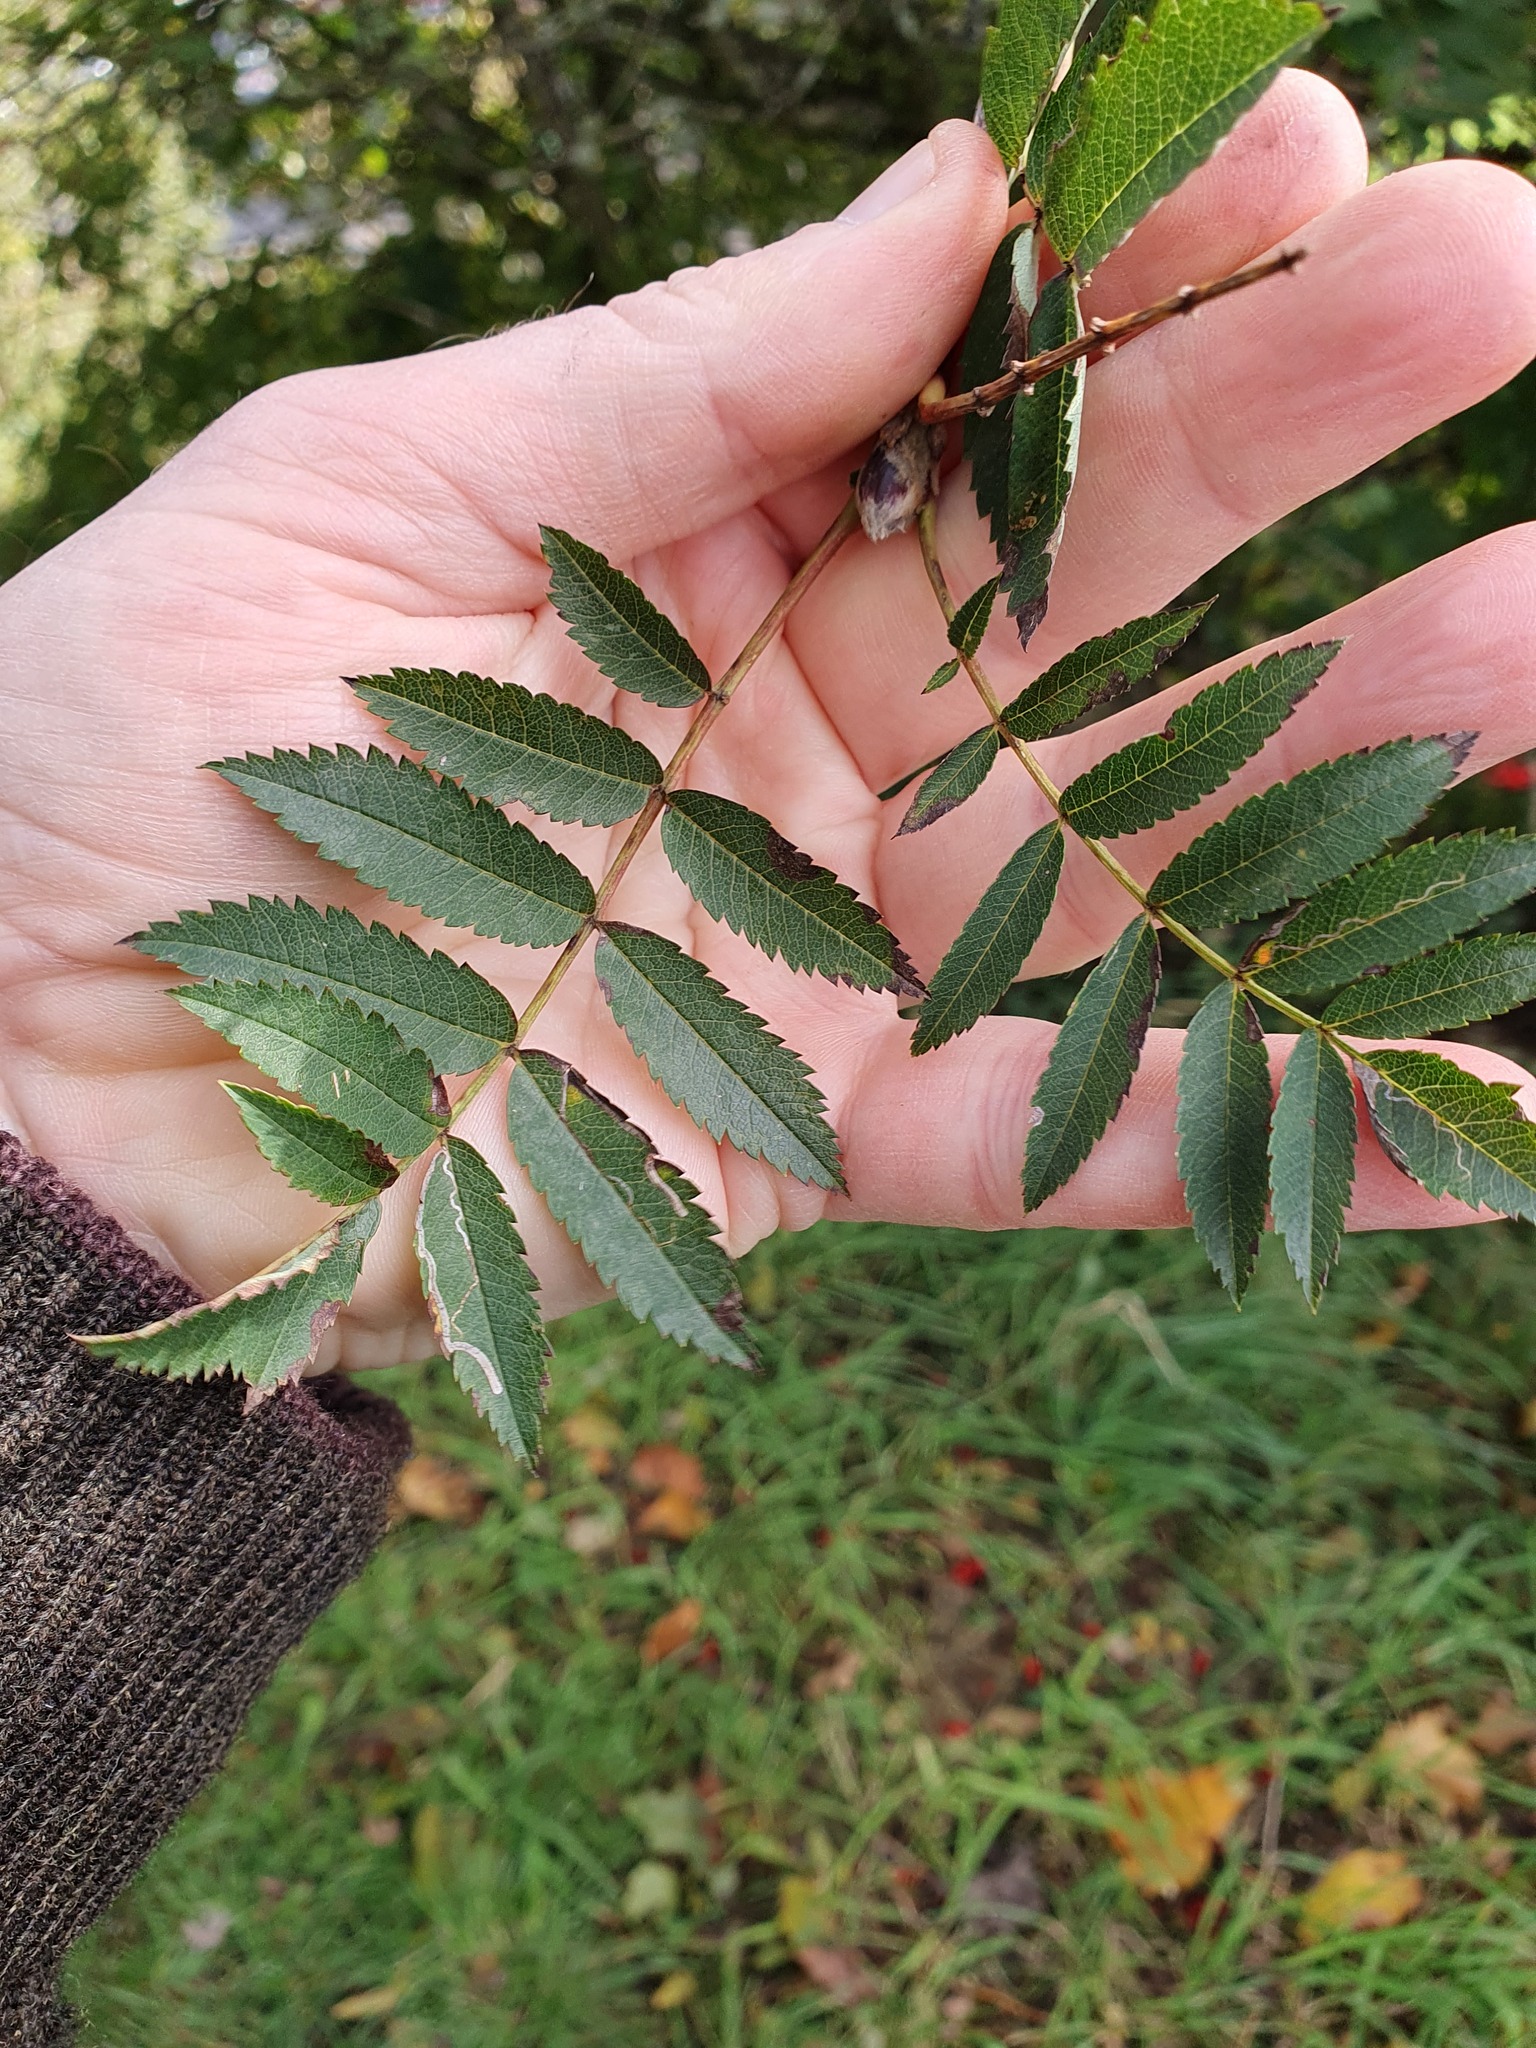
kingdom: Plantae
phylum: Tracheophyta
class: Magnoliopsida
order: Rosales
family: Rosaceae
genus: Sorbus
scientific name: Sorbus aucuparia
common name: Rowan
